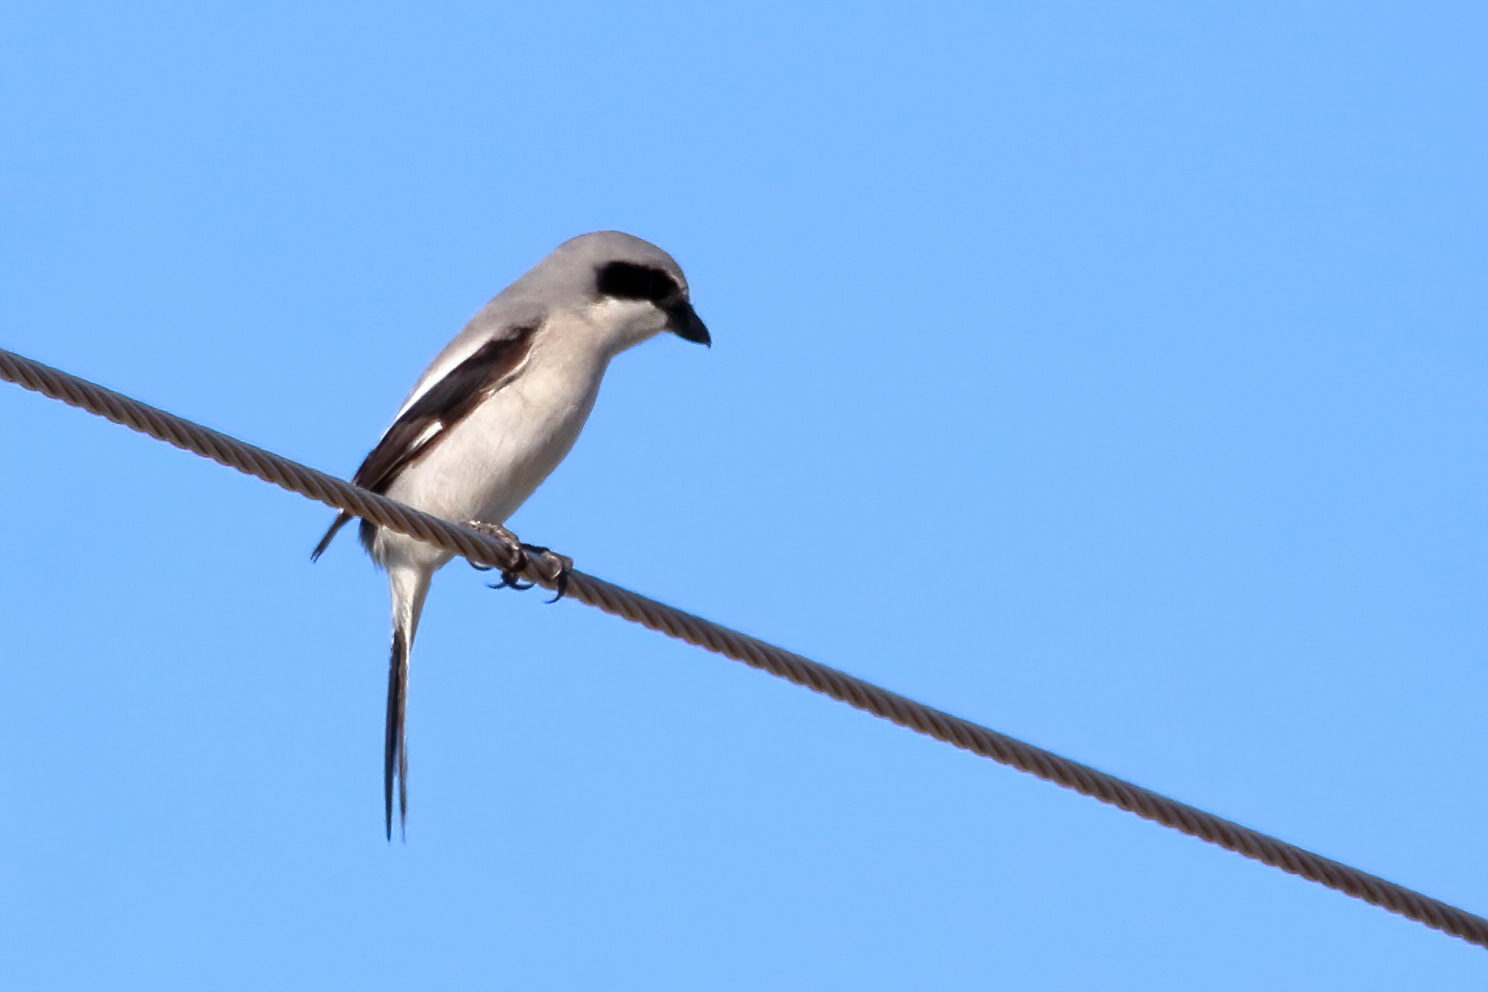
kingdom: Animalia
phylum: Chordata
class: Aves
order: Passeriformes
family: Laniidae
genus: Lanius
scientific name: Lanius ludovicianus
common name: Loggerhead shrike
